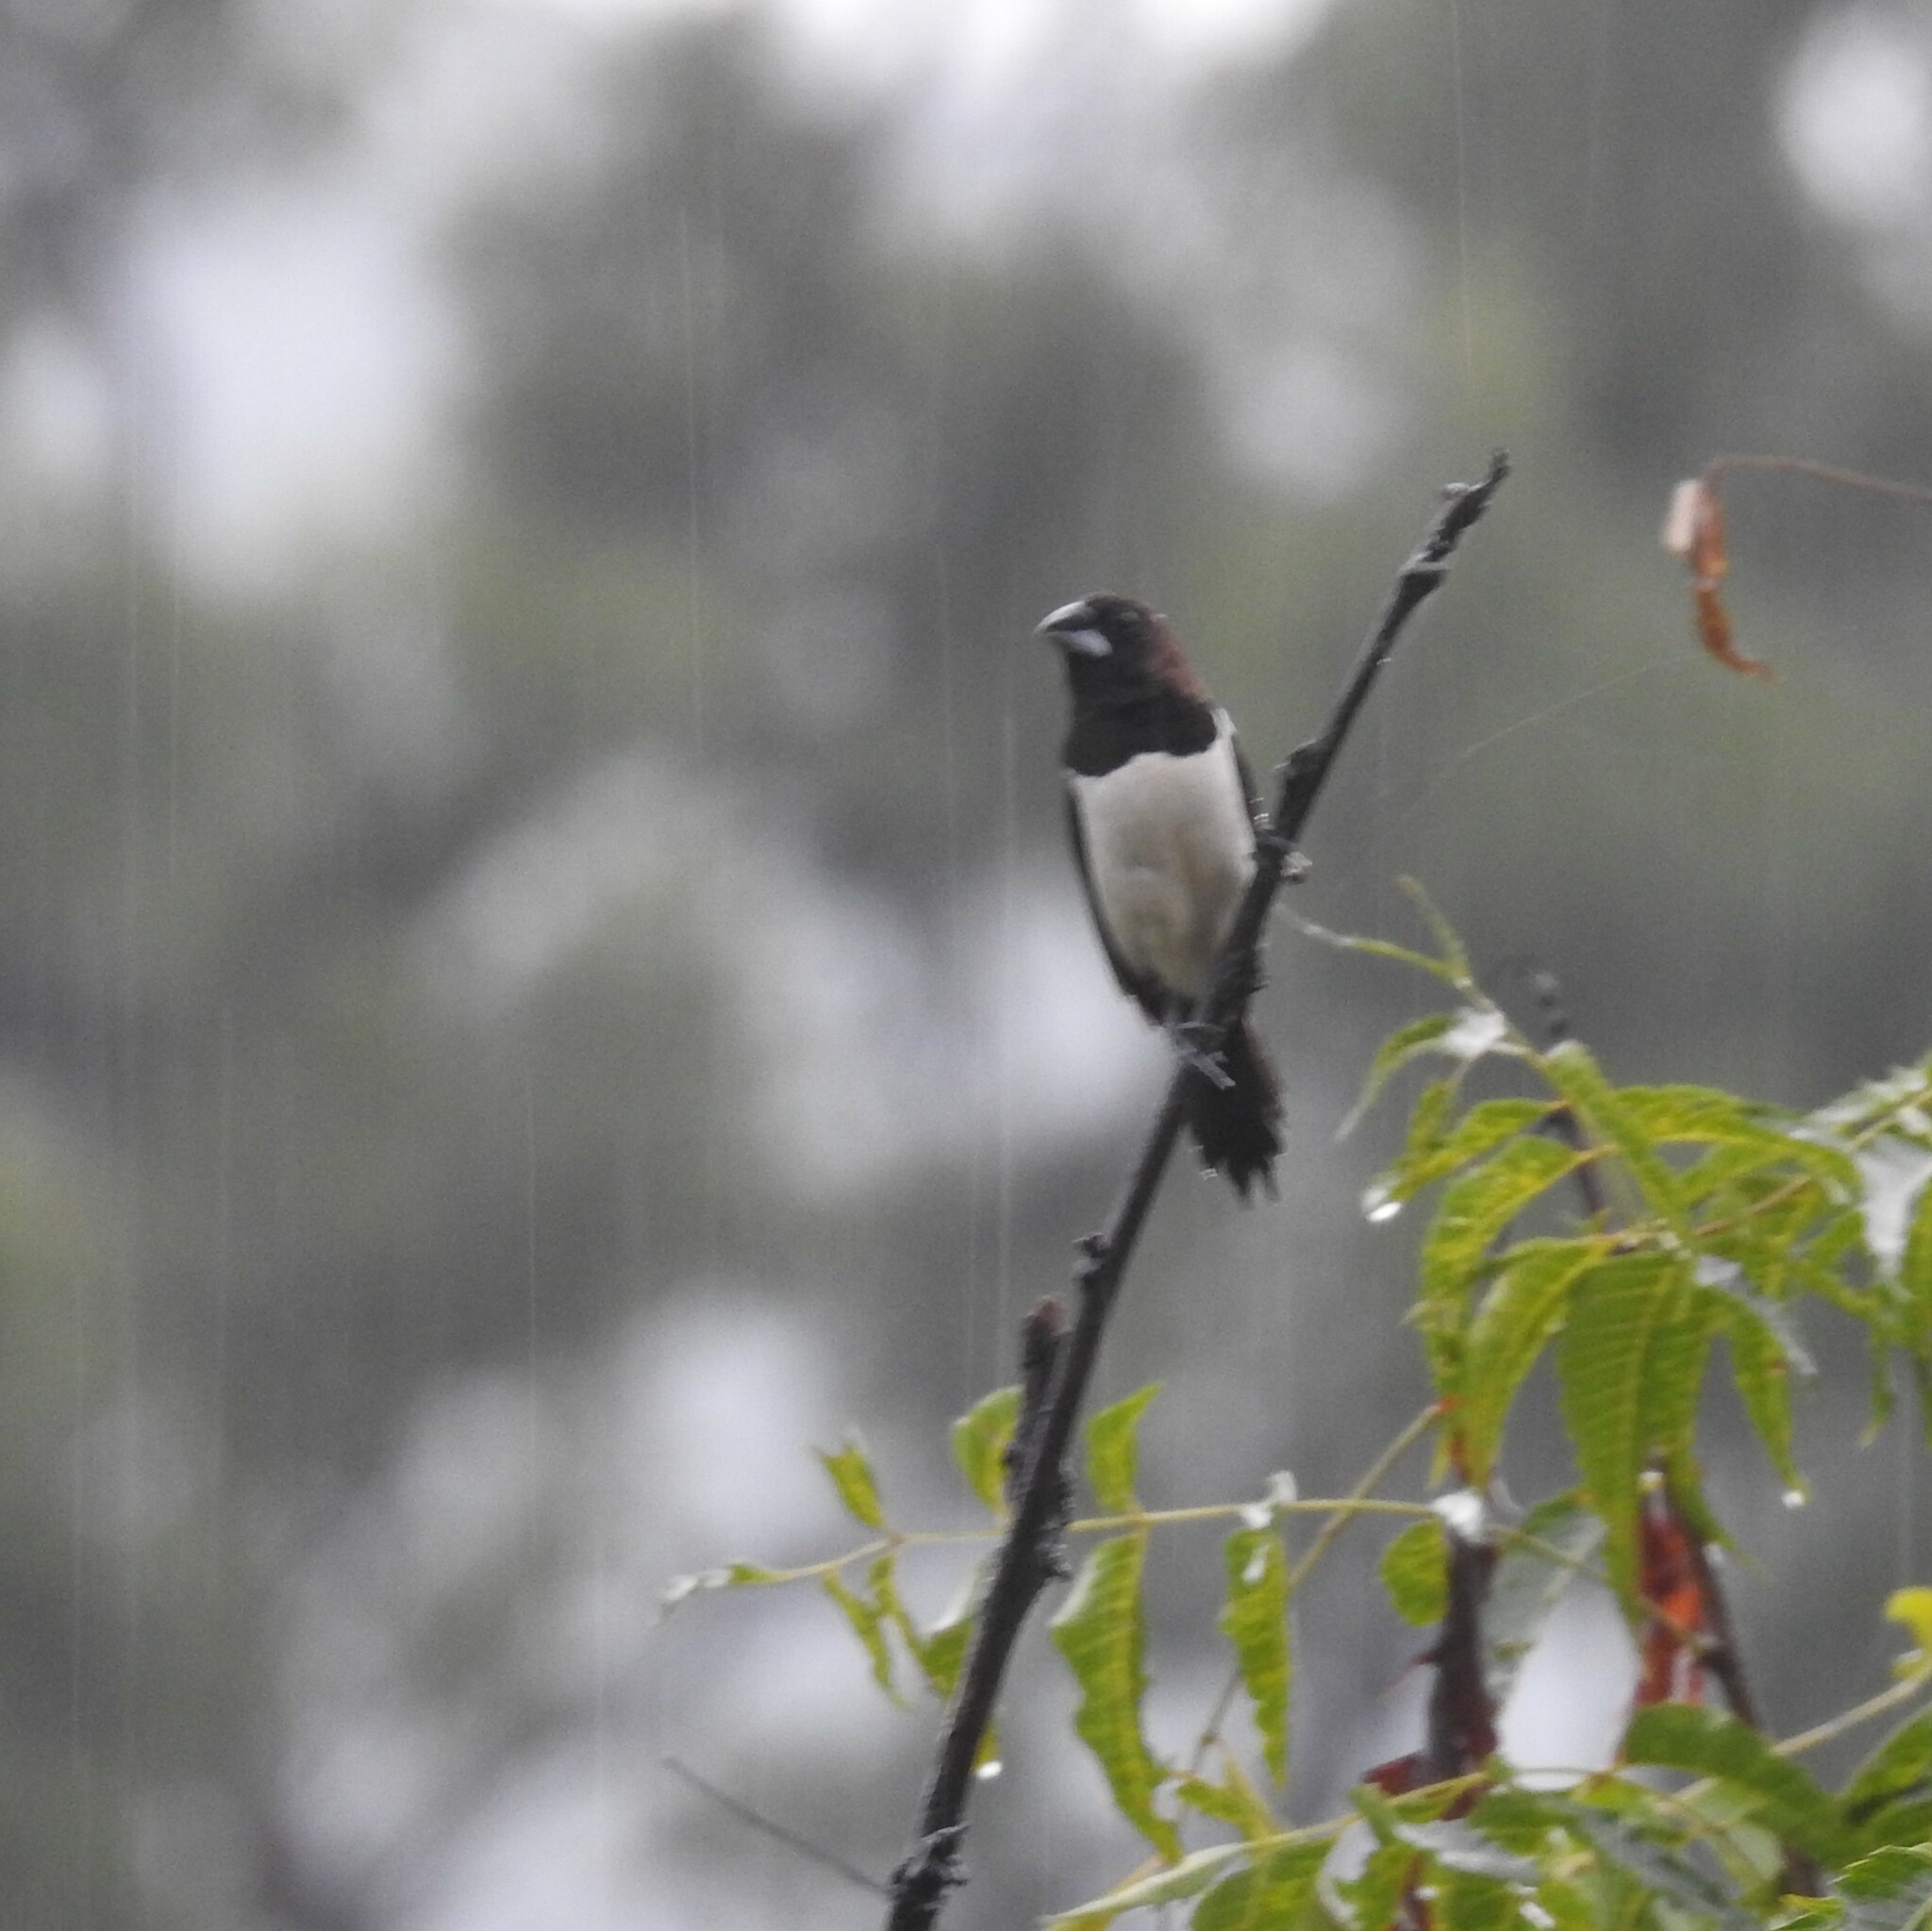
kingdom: Animalia
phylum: Chordata
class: Aves
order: Passeriformes
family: Estrildidae
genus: Lonchura
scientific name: Lonchura striata
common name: White-rumped munia
